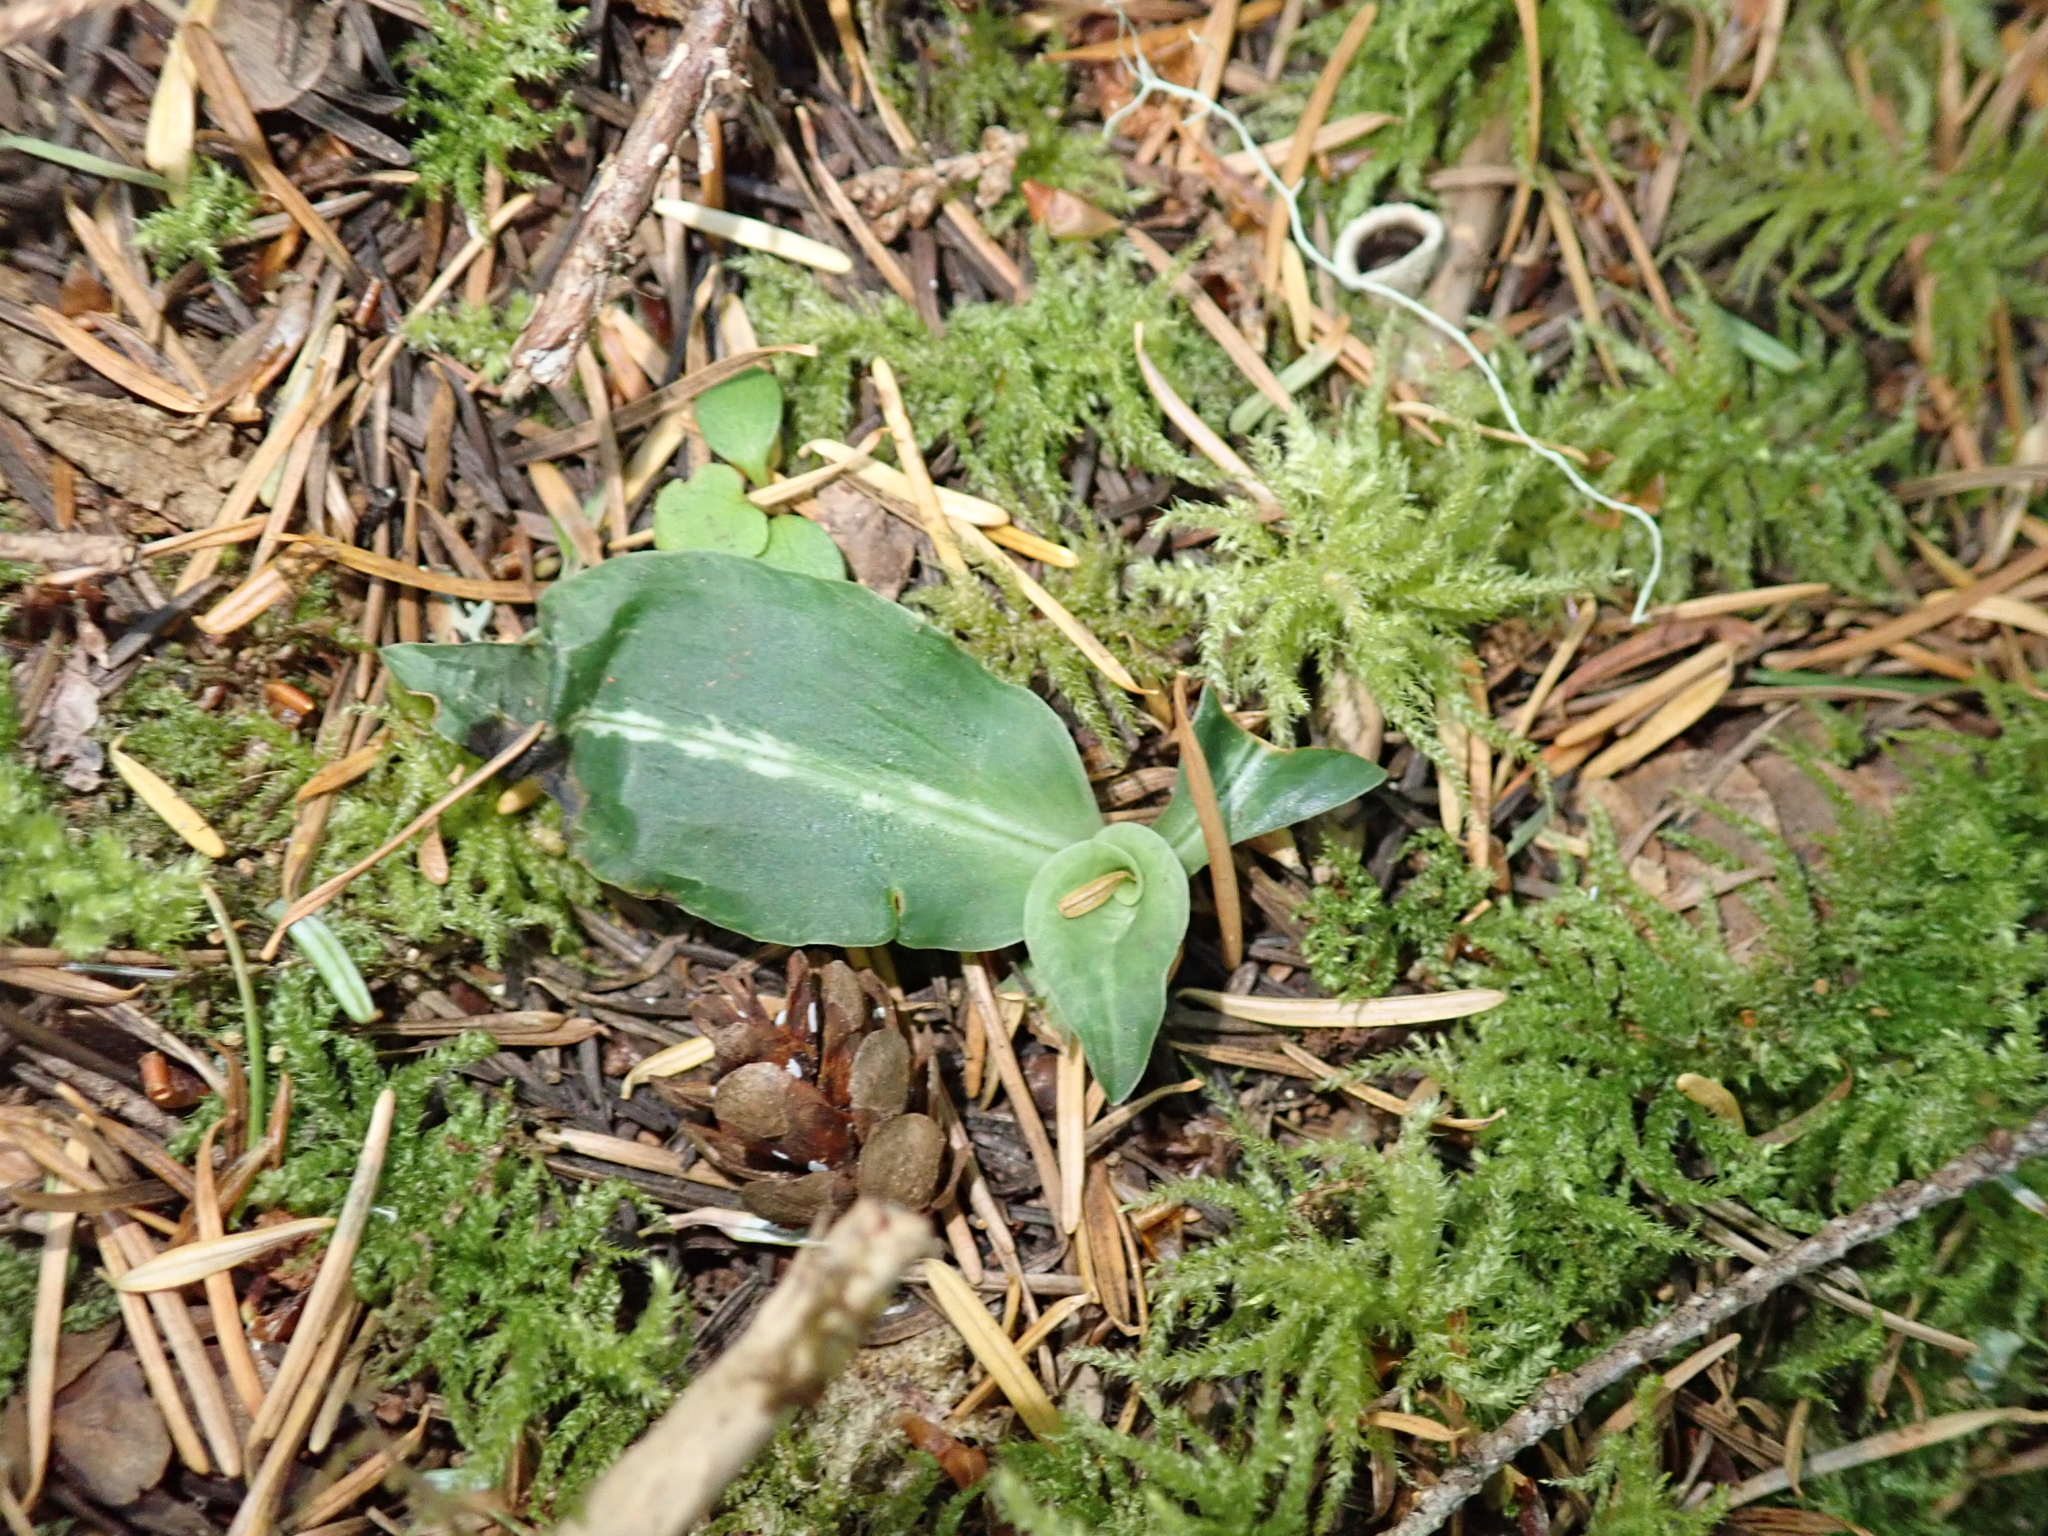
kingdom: Plantae
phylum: Tracheophyta
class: Liliopsida
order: Asparagales
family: Orchidaceae
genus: Goodyera
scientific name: Goodyera oblongifolia
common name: Giant rattlesnake-plantain
